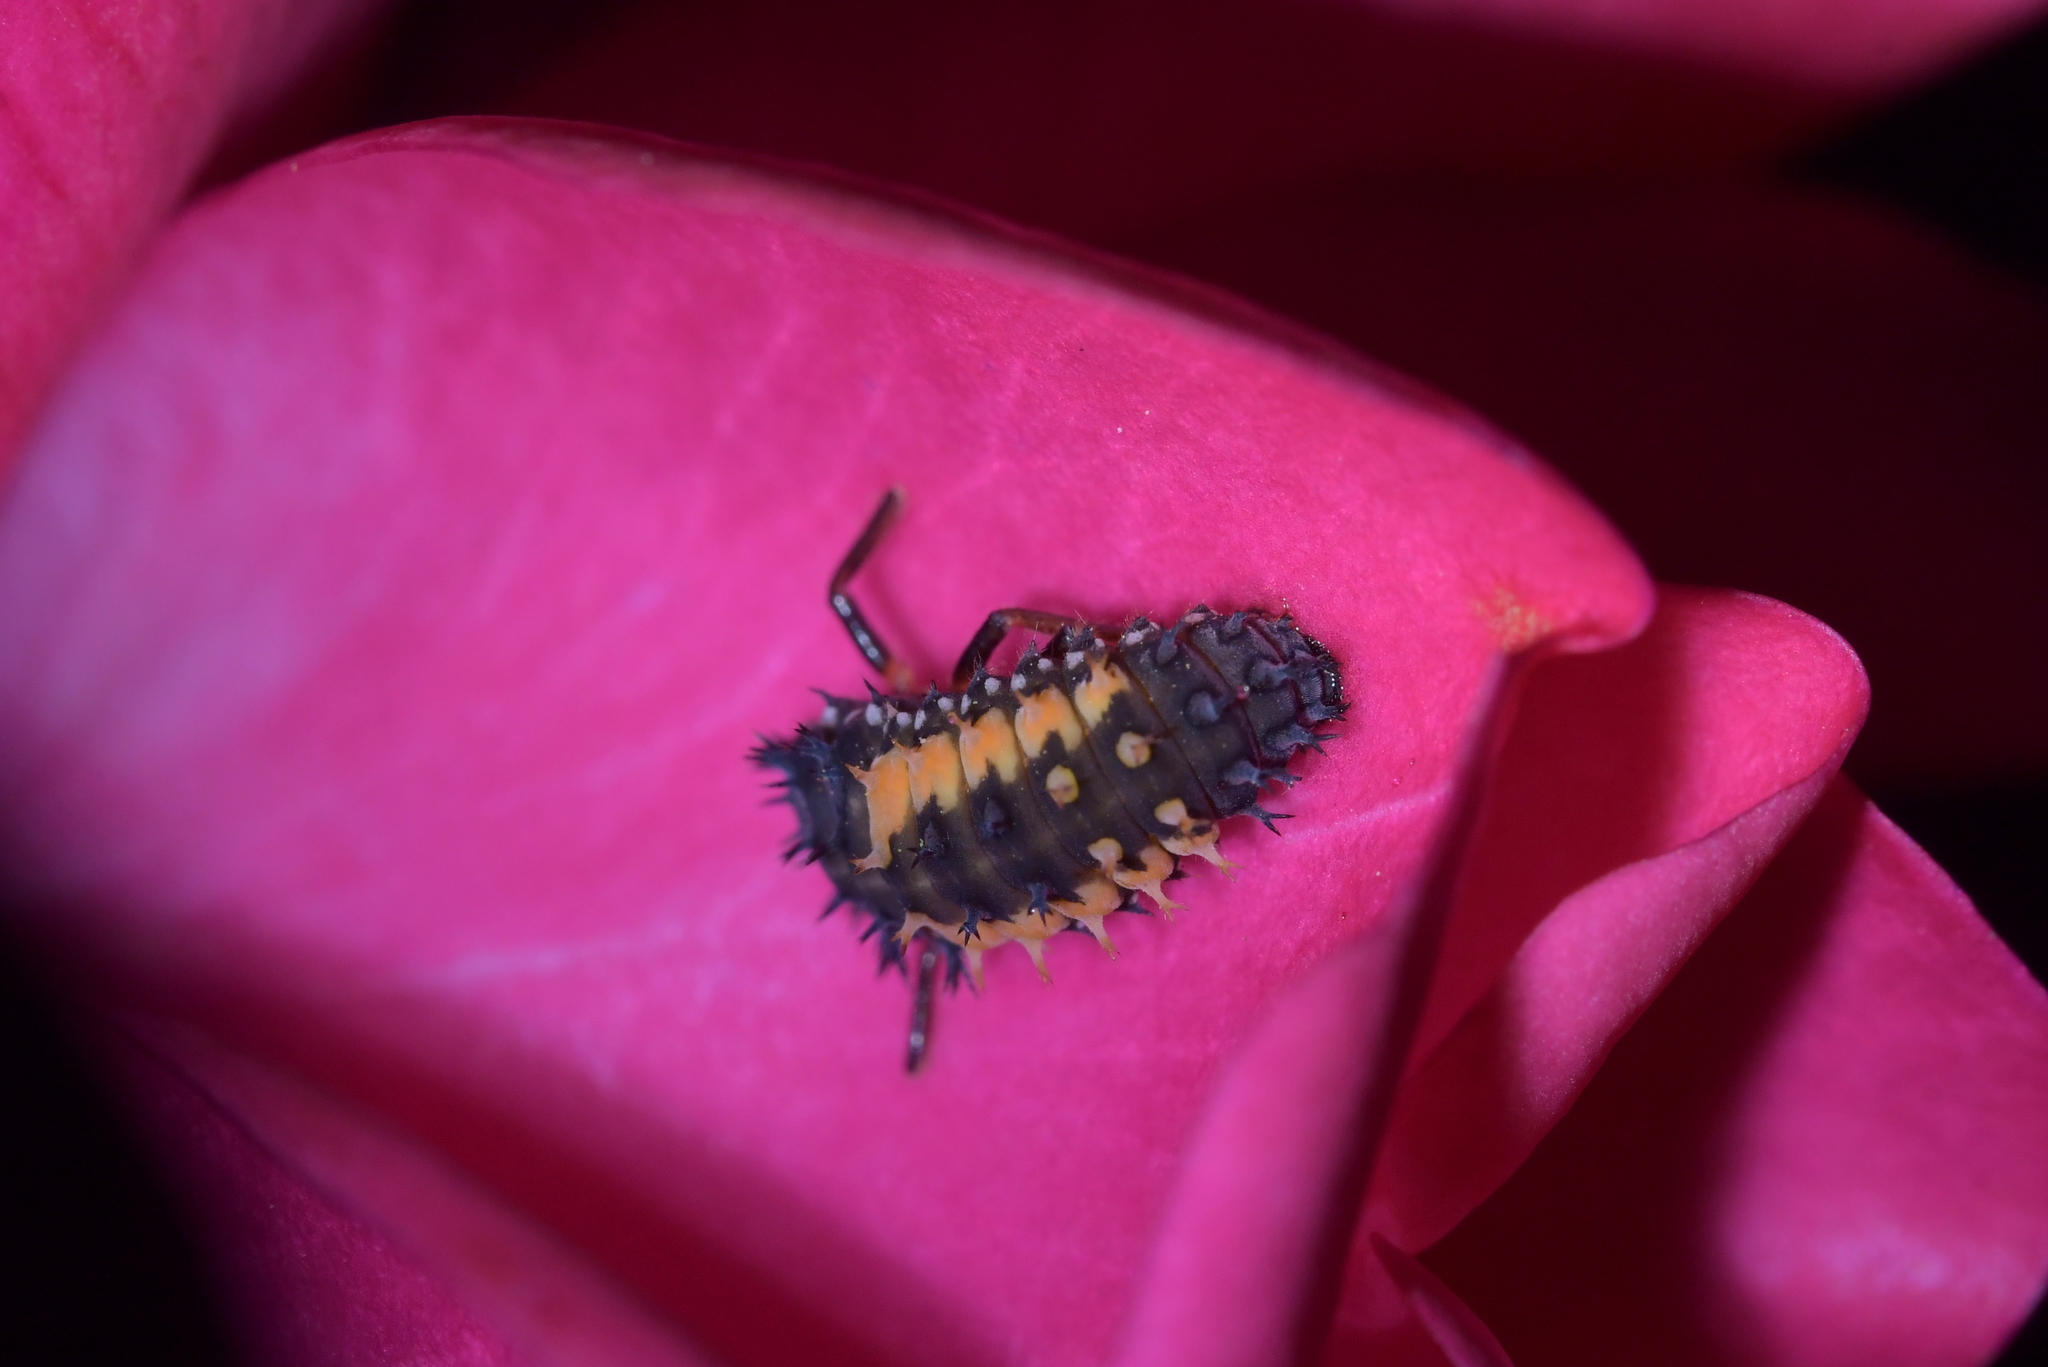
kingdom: Animalia
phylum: Arthropoda
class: Insecta
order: Coleoptera
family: Coccinellidae
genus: Harmonia
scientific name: Harmonia axyridis
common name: Harlequin ladybird
